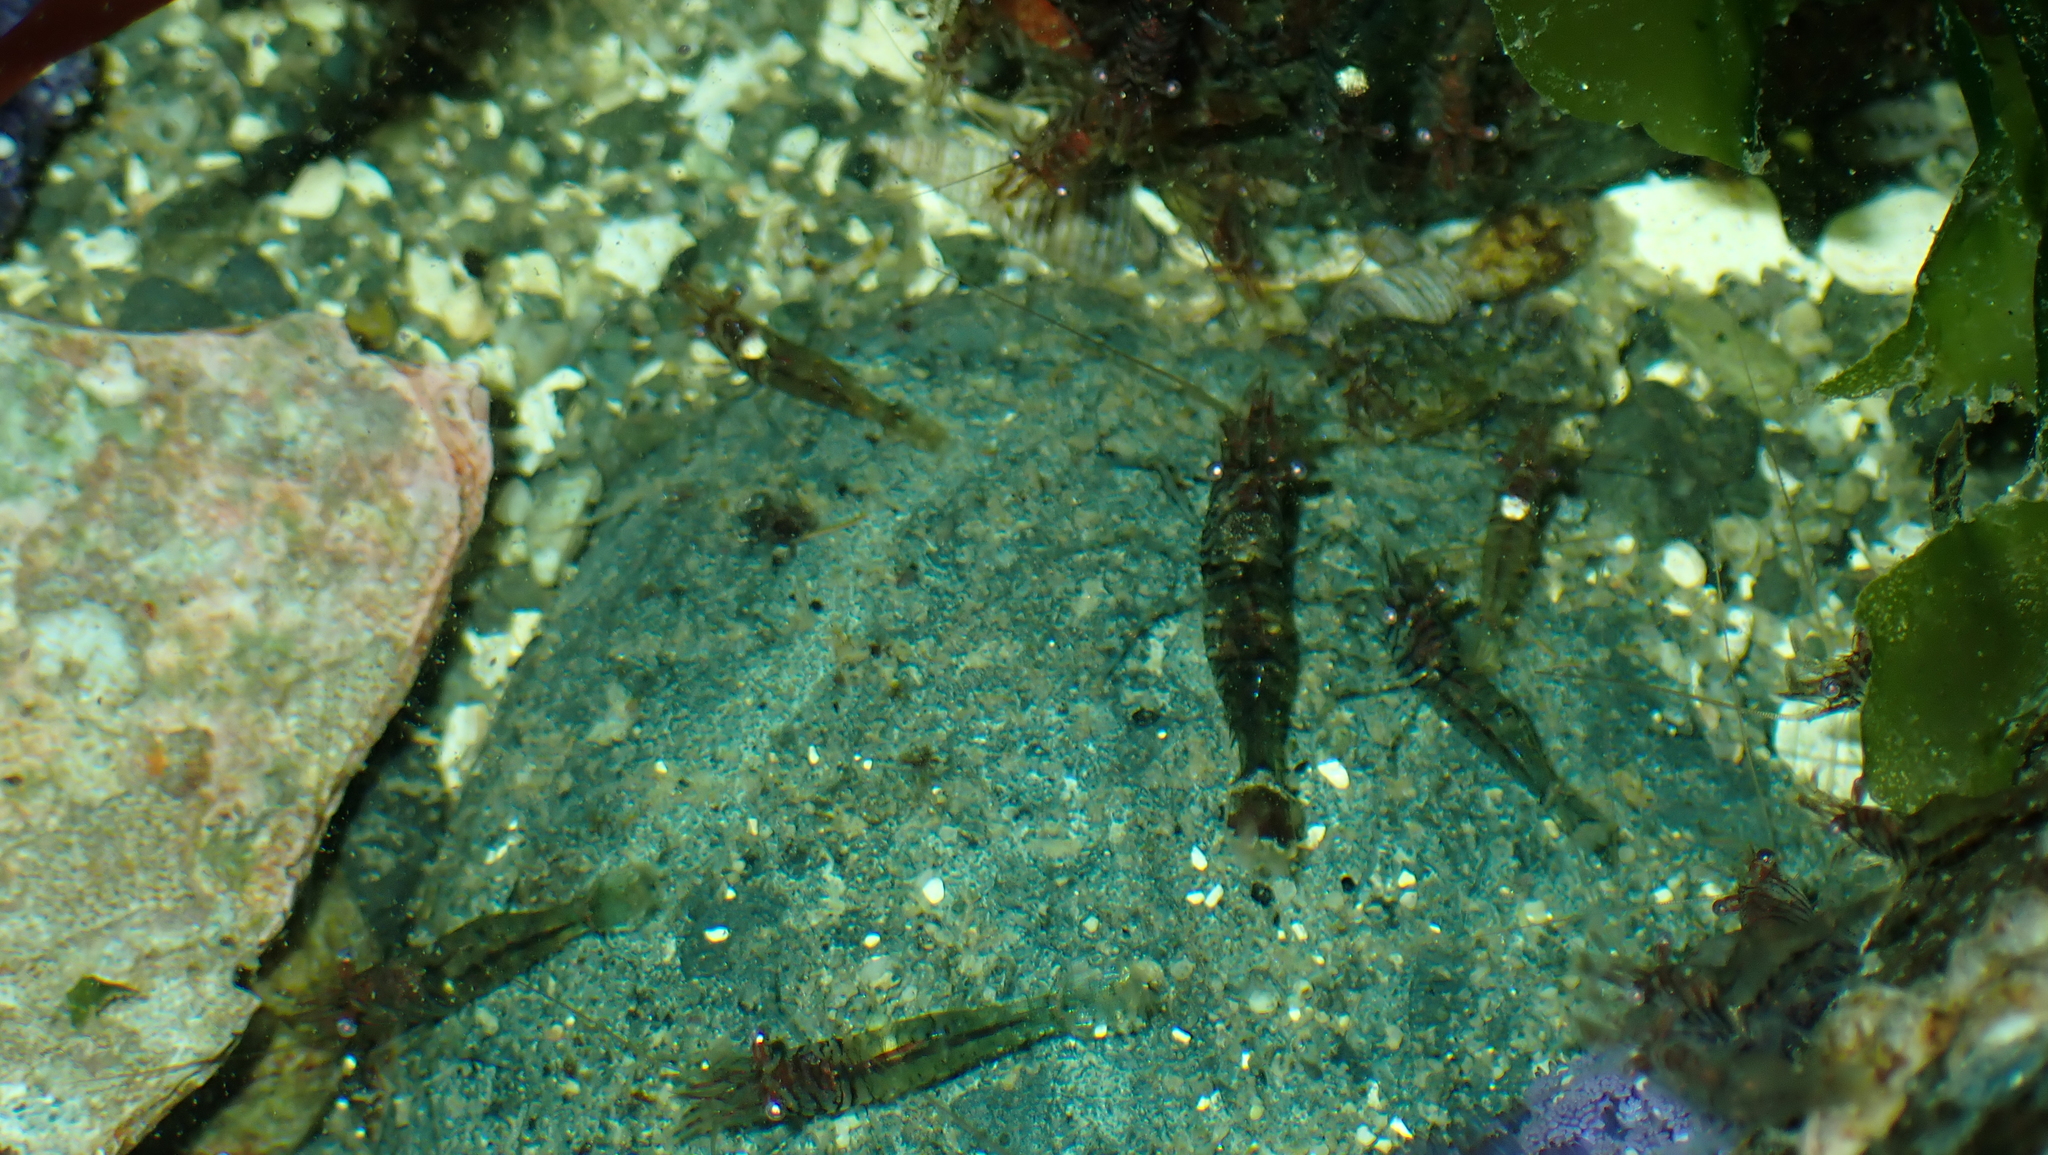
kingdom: Animalia
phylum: Arthropoda
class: Malacostraca
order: Decapoda
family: Thoridae
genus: Heptacarpus
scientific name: Heptacarpus sitchensis
